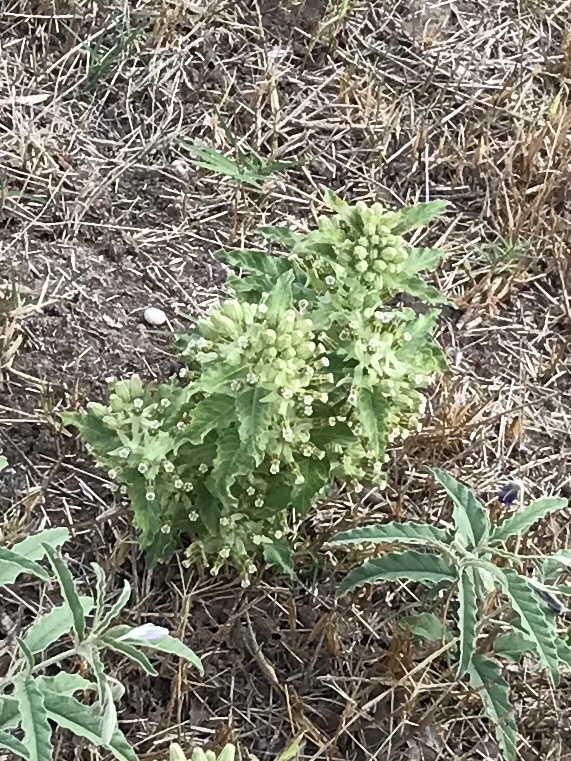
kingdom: Plantae
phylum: Tracheophyta
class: Magnoliopsida
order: Gentianales
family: Apocynaceae
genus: Asclepias
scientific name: Asclepias oenotheroides
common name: Zizotes milkweed
